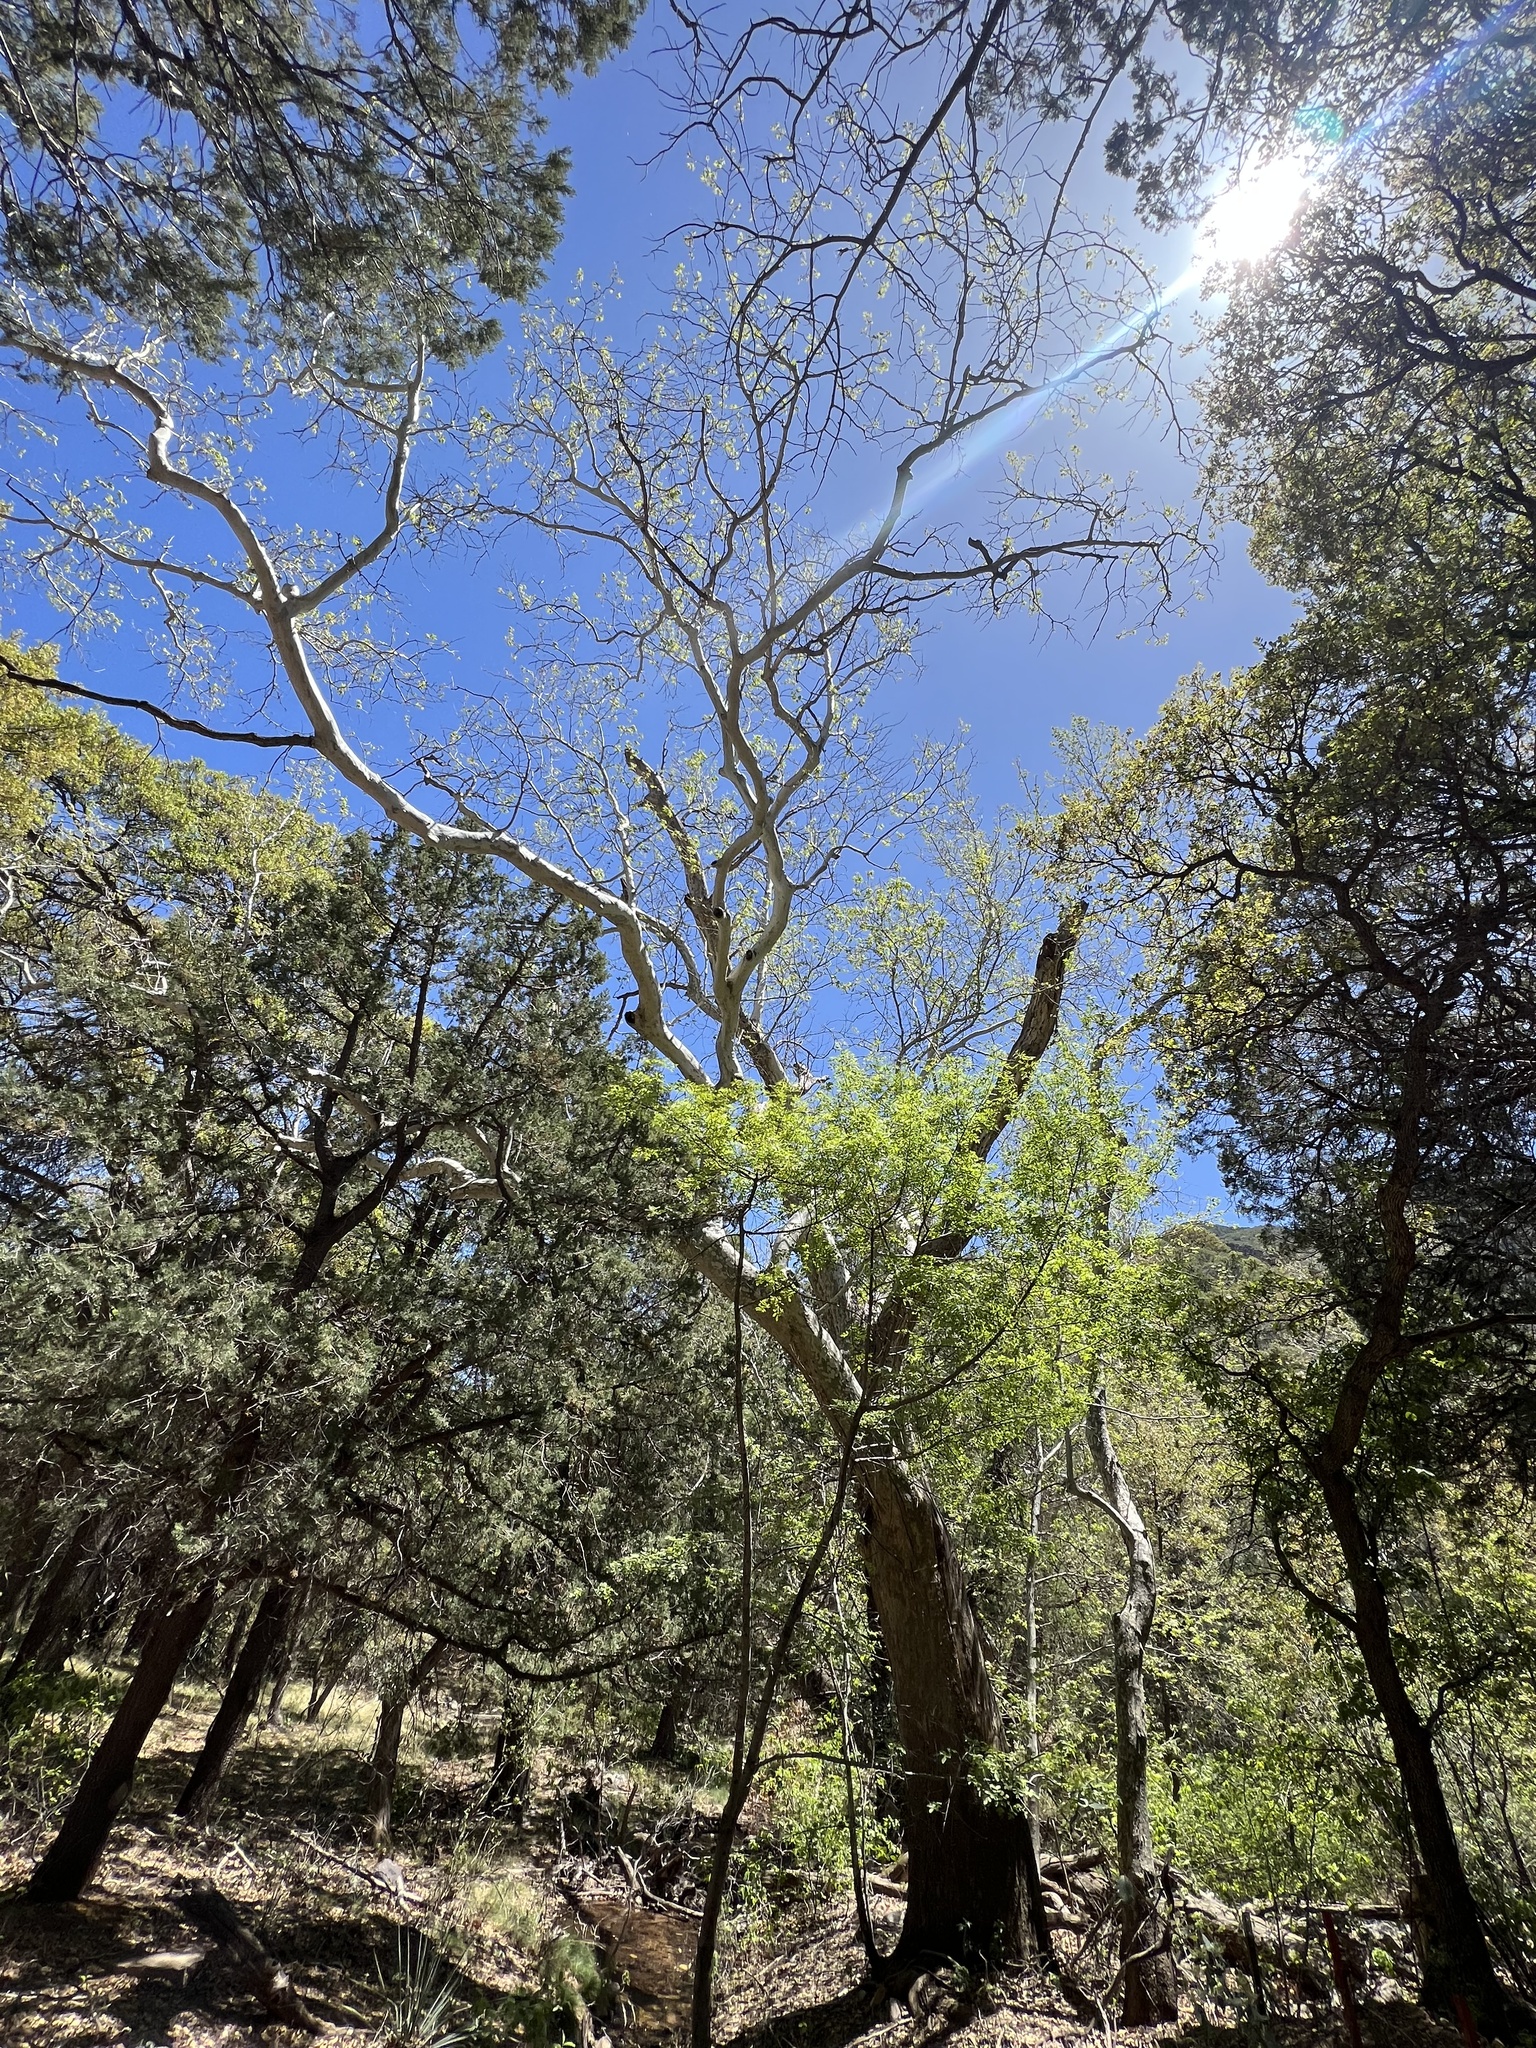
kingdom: Plantae
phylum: Tracheophyta
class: Magnoliopsida
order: Proteales
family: Platanaceae
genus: Platanus
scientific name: Platanus wrightii
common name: Arizona sycamore
